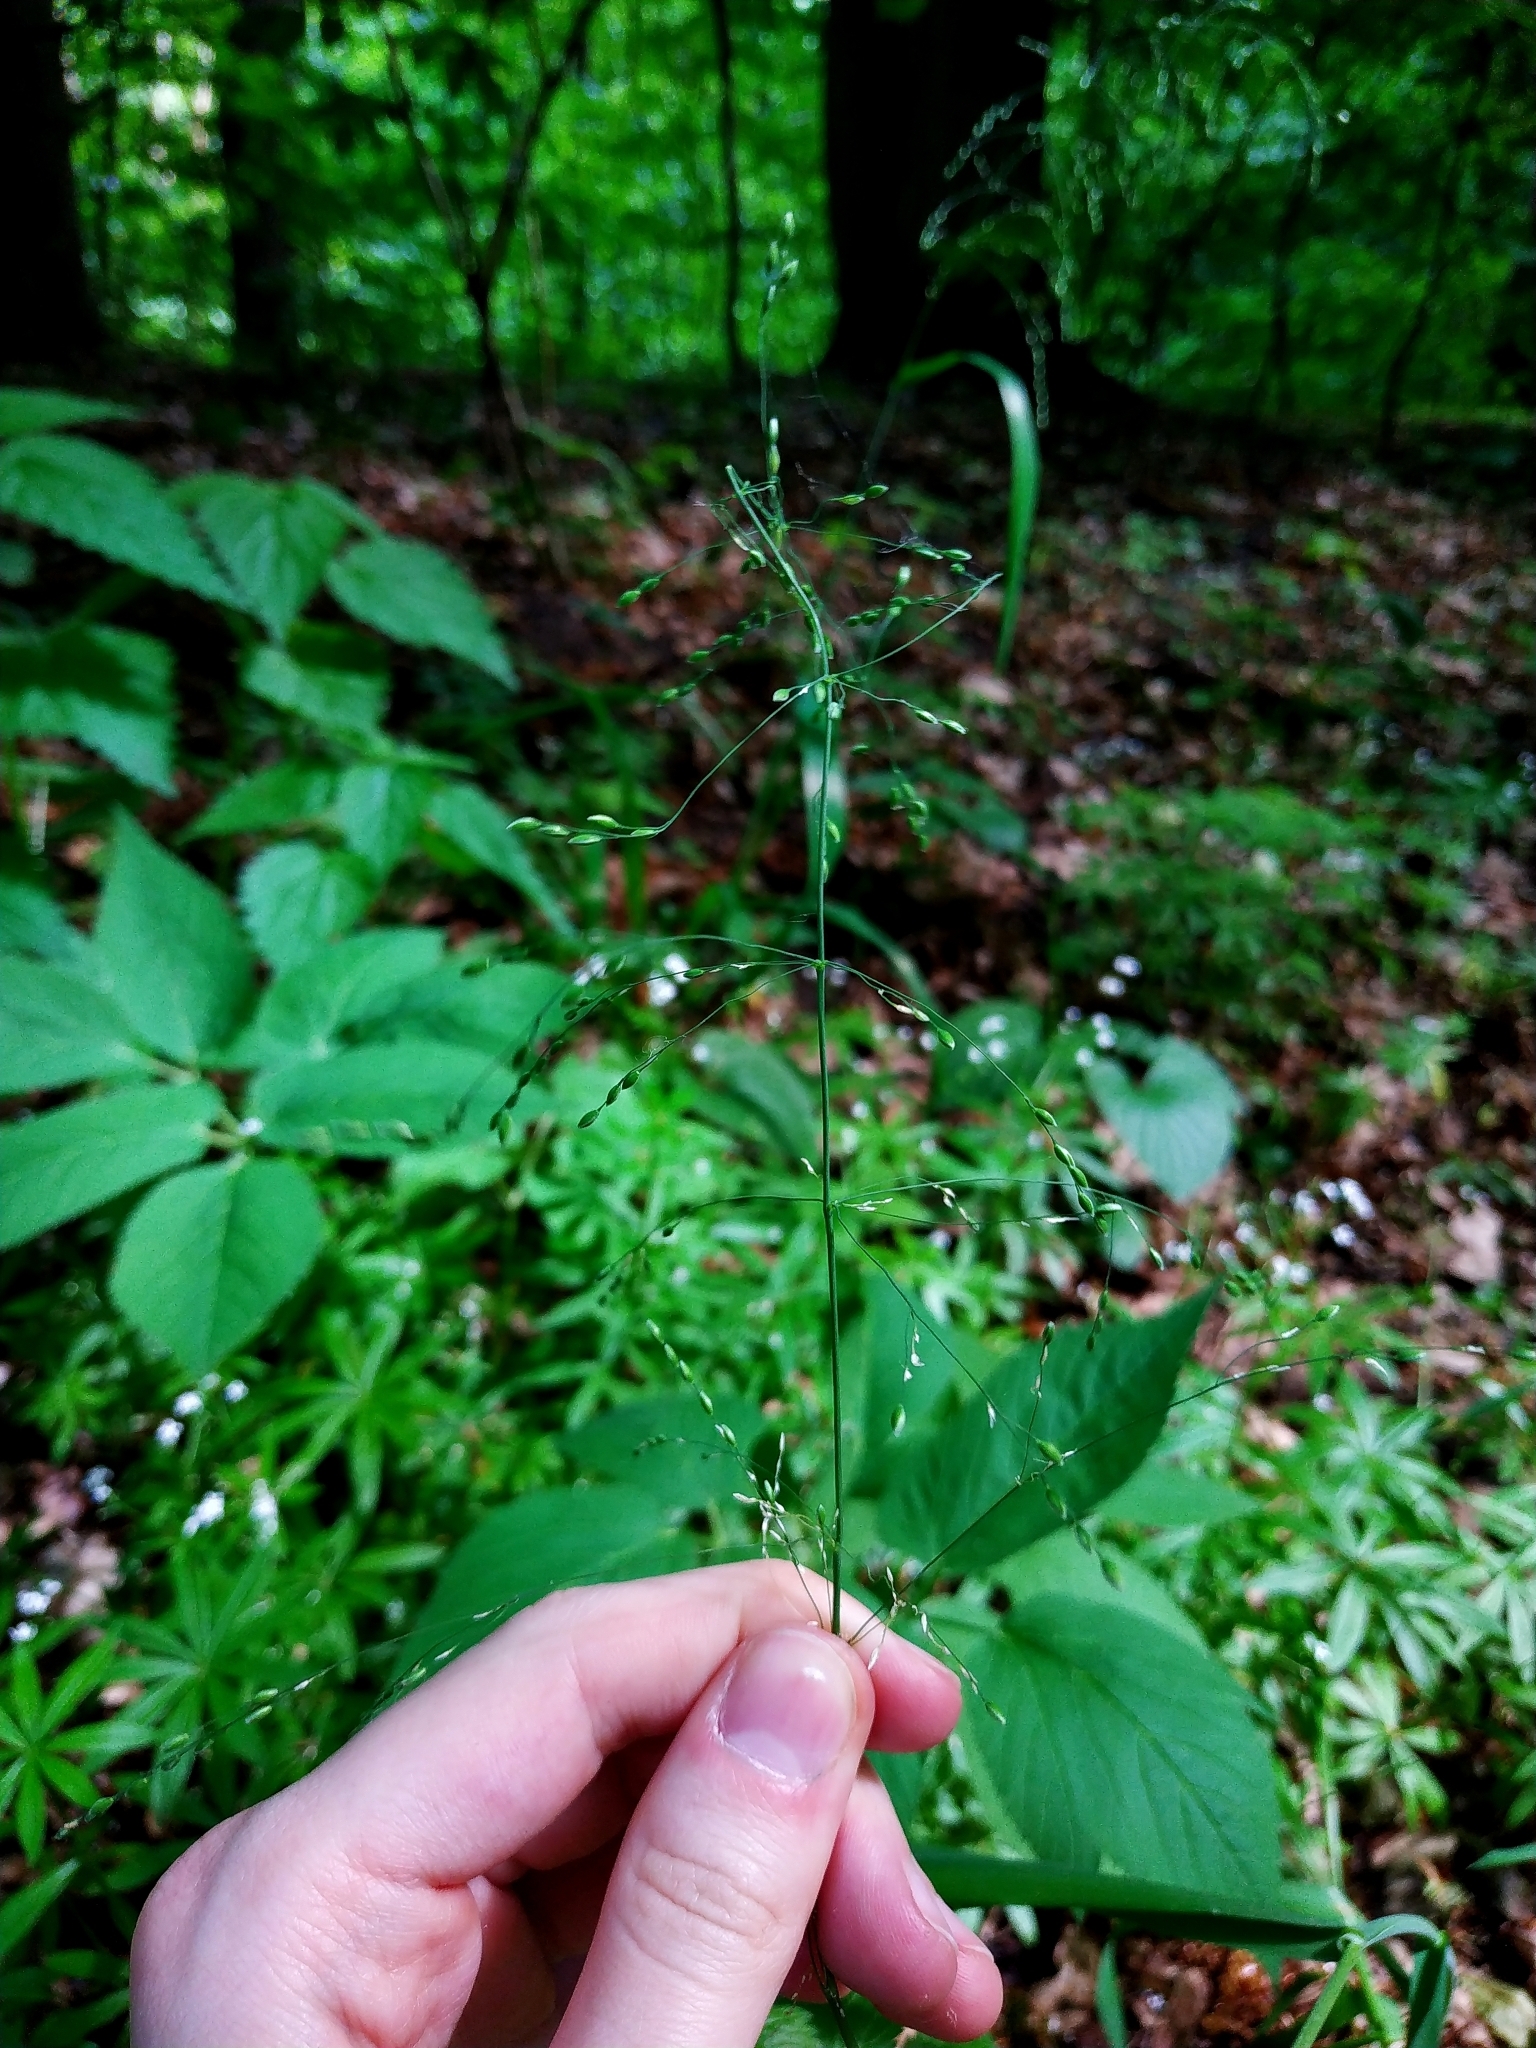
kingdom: Plantae
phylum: Tracheophyta
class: Liliopsida
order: Poales
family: Poaceae
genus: Milium
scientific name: Milium effusum
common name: Wood millet
